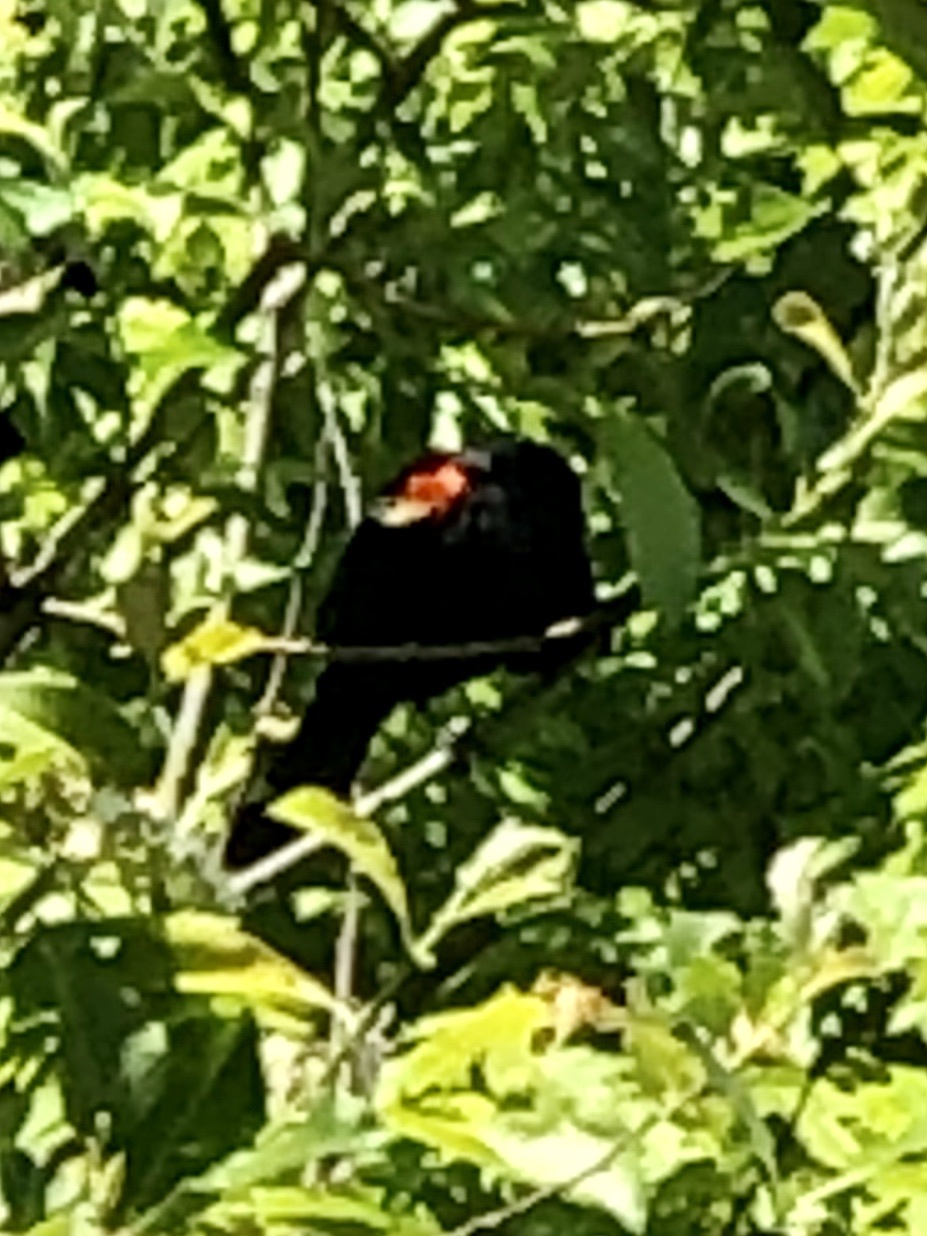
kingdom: Animalia
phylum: Chordata
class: Aves
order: Passeriformes
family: Icteridae
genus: Agelaius
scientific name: Agelaius phoeniceus
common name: Red-winged blackbird
